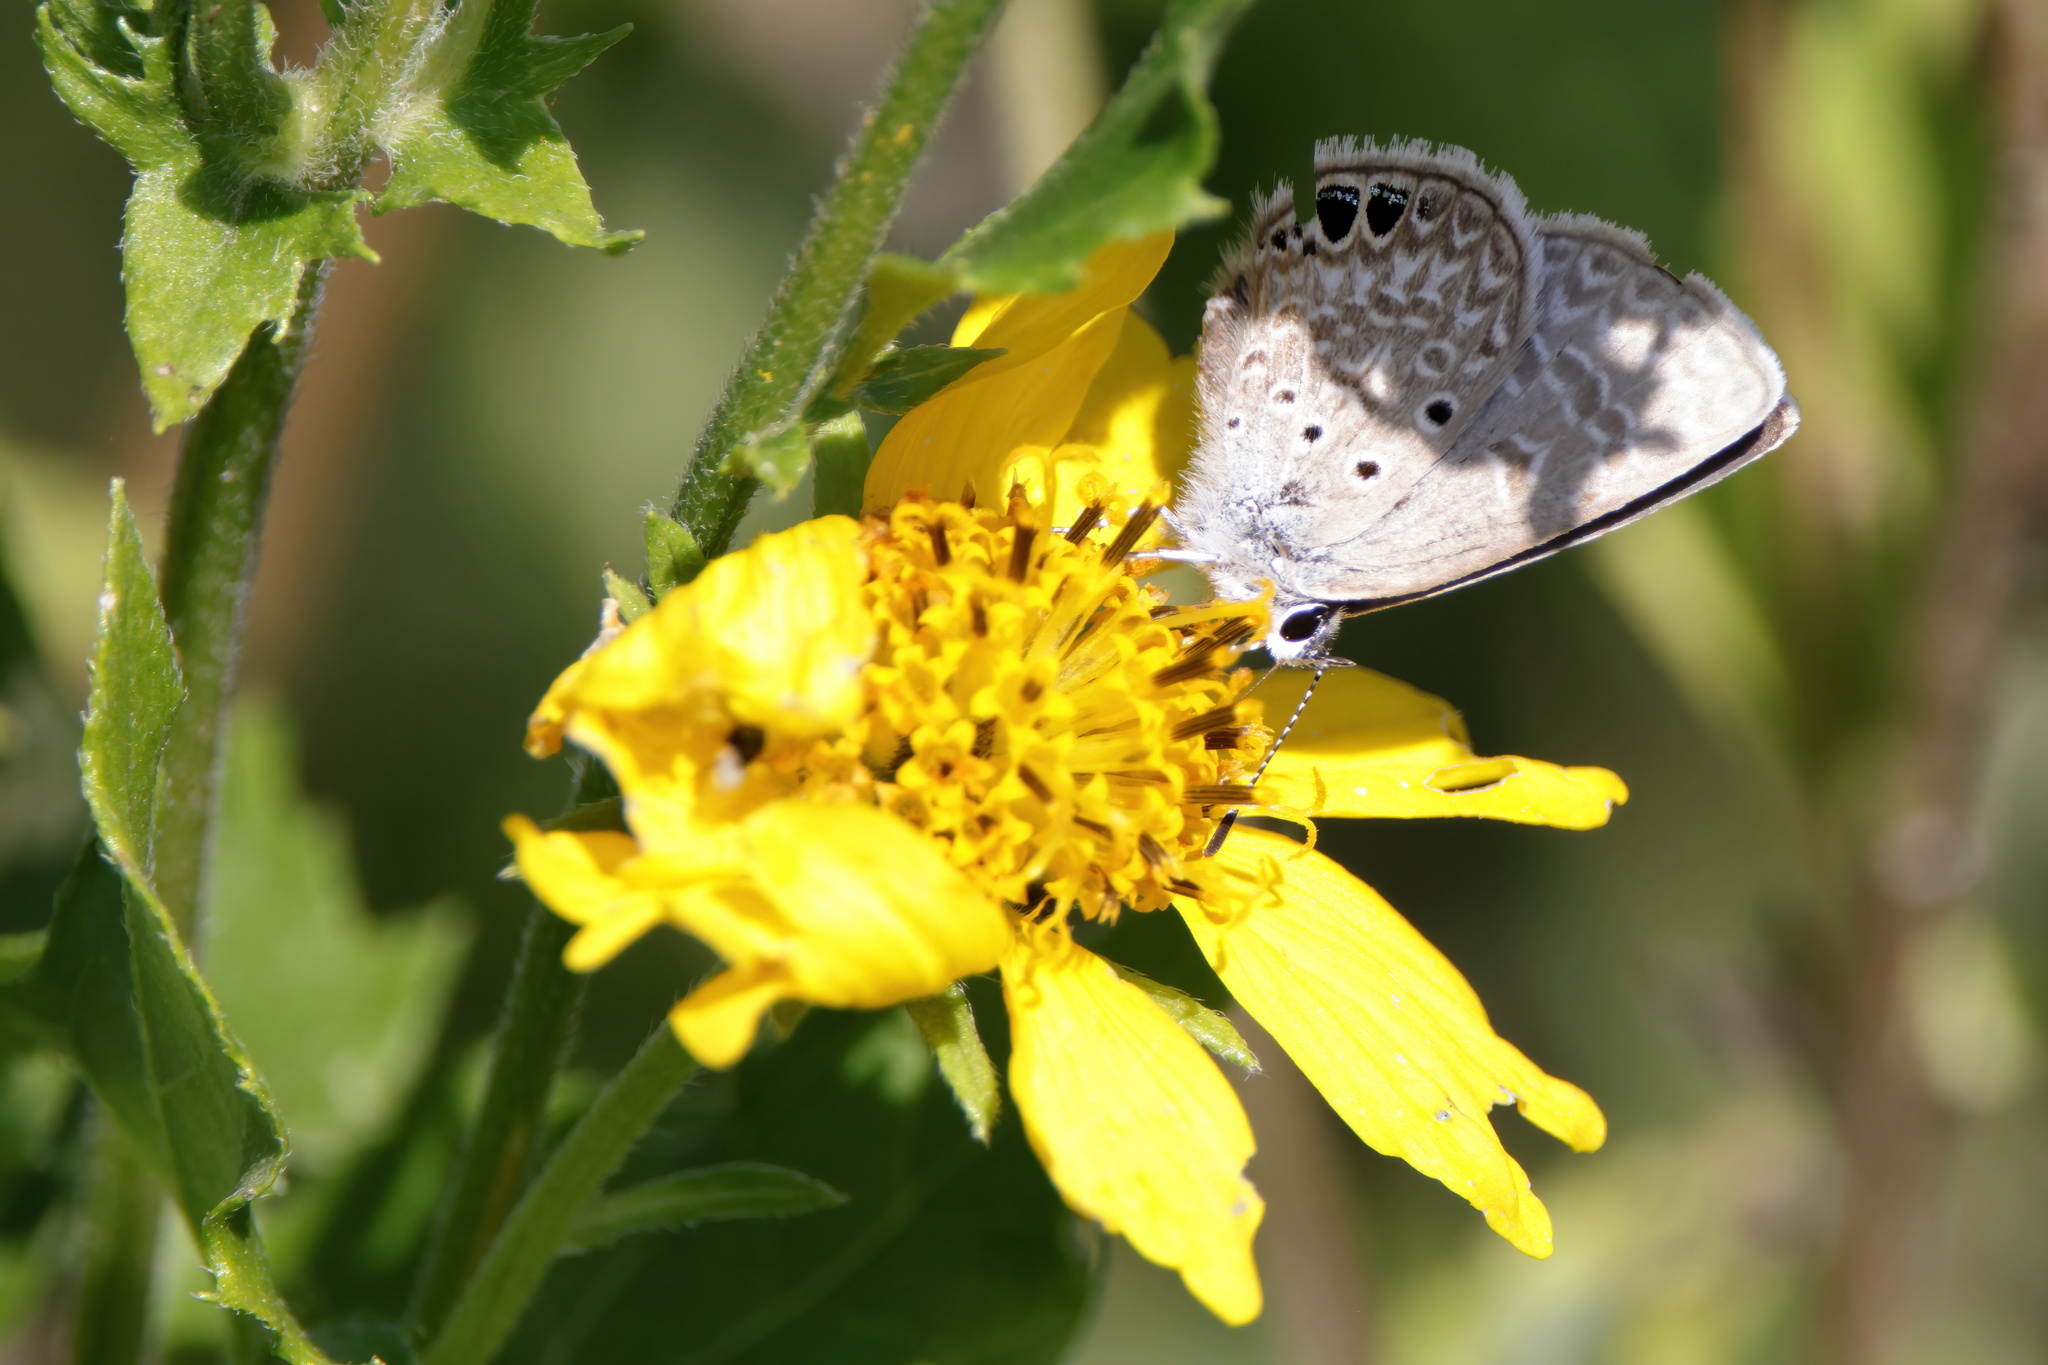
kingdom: Animalia
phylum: Arthropoda
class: Insecta
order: Lepidoptera
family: Lycaenidae
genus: Hemiargus
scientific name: Hemiargus ceraunus
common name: Ceraunus blue
